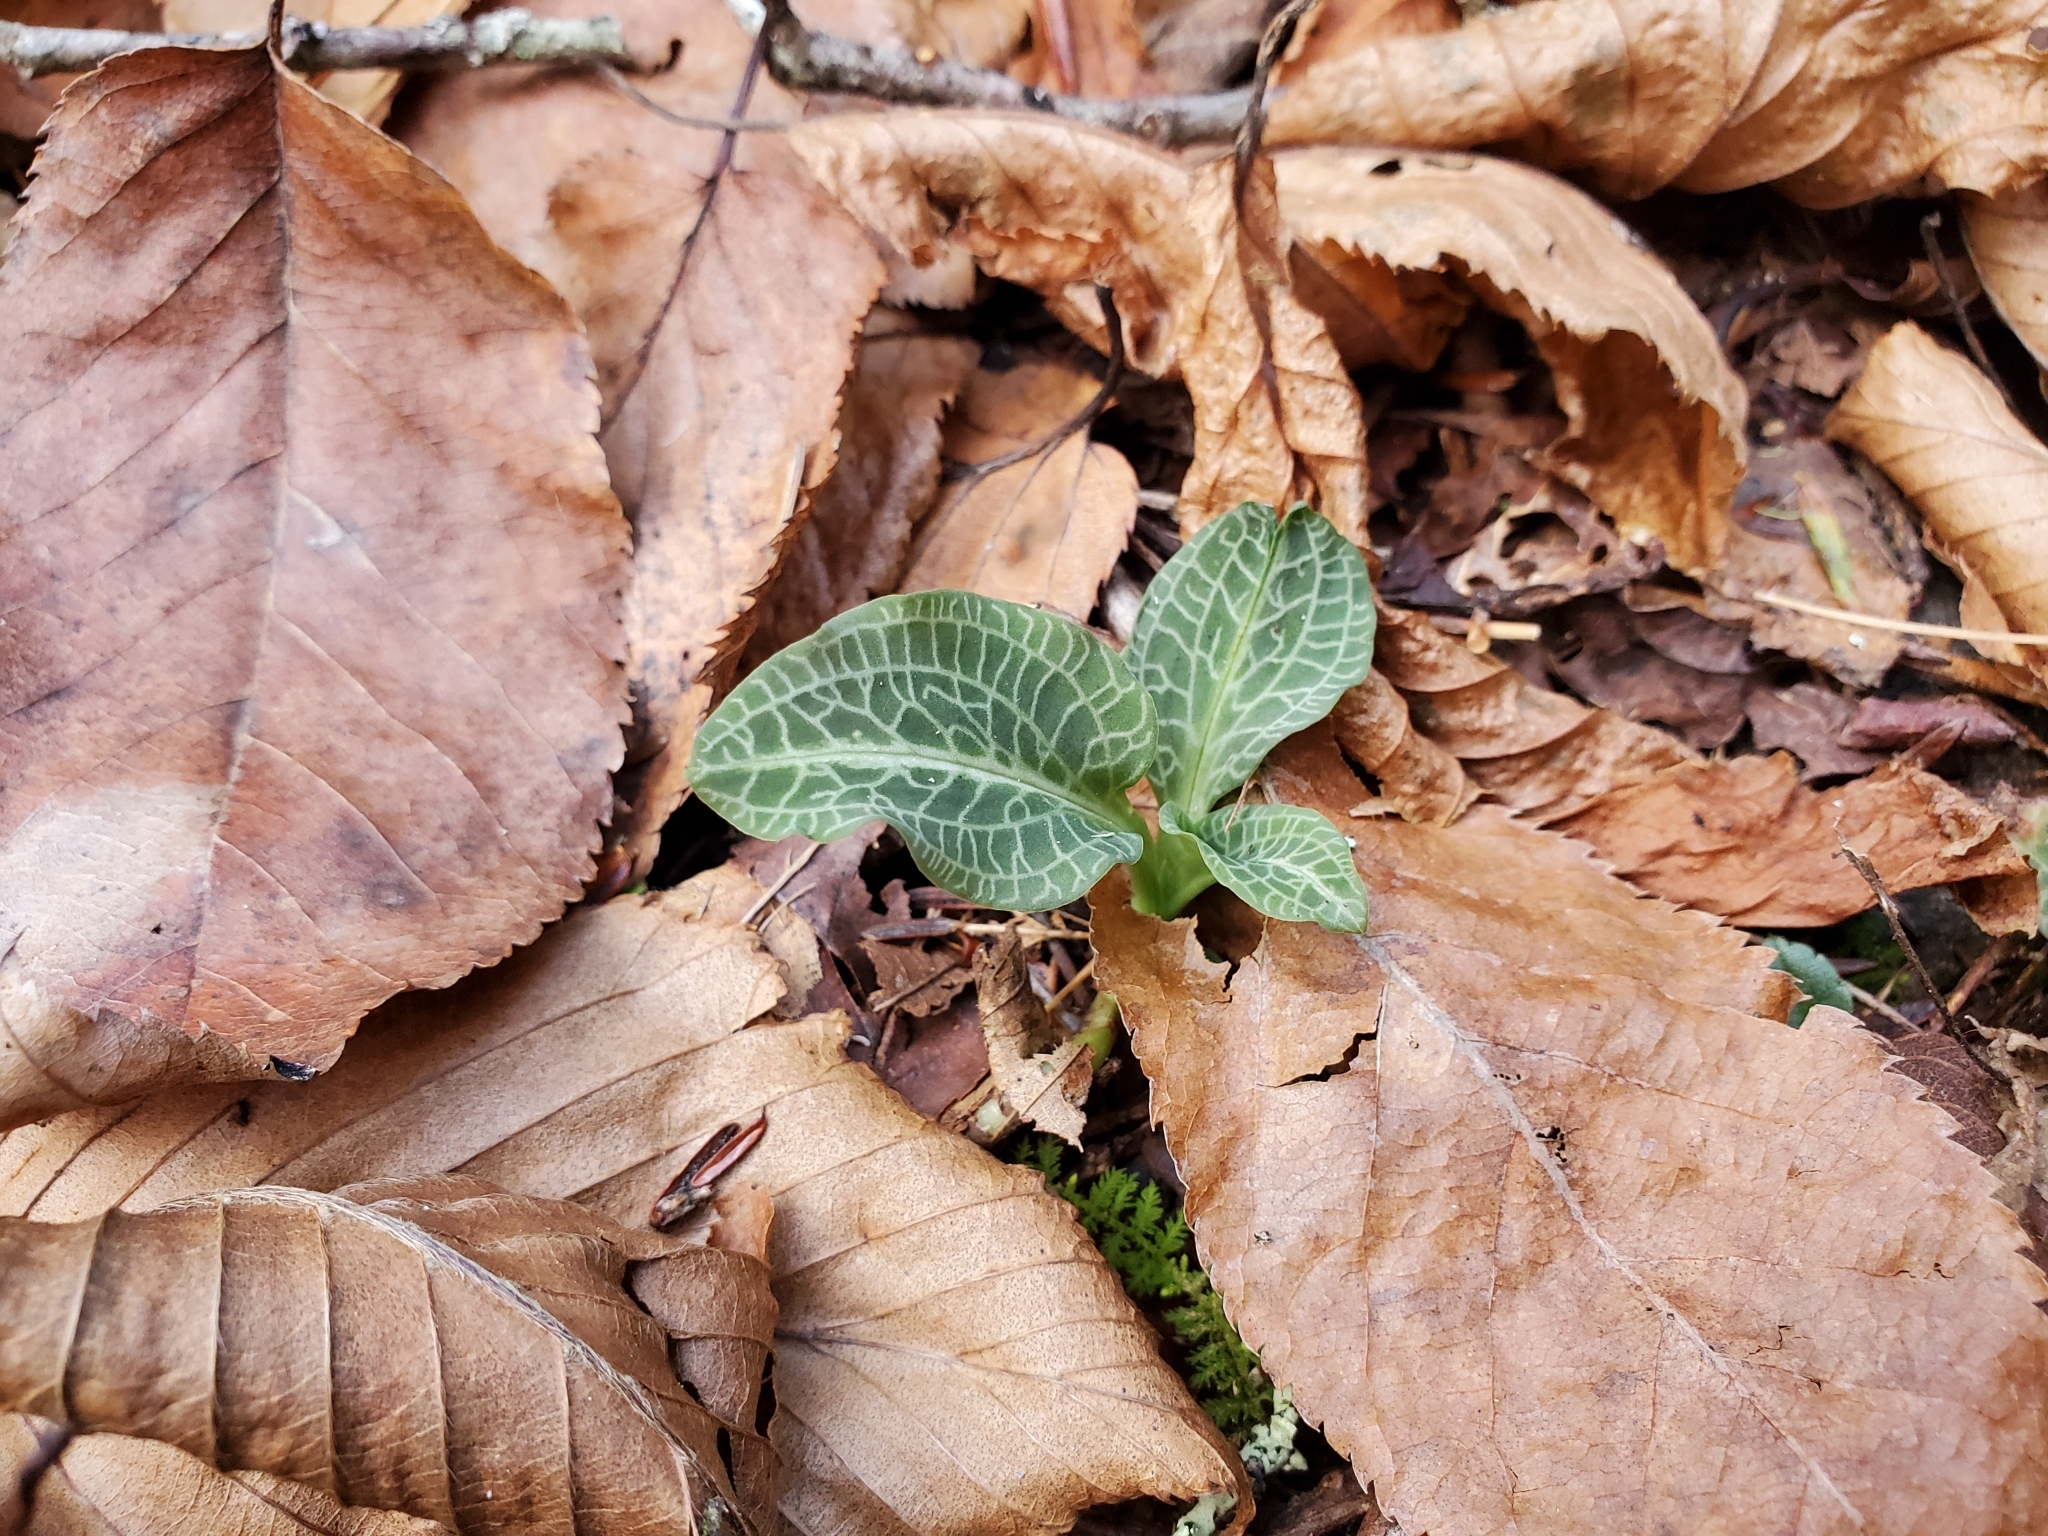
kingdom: Plantae
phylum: Tracheophyta
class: Liliopsida
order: Asparagales
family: Orchidaceae
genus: Goodyera
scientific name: Goodyera pubescens
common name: Downy rattlesnake-plantain
